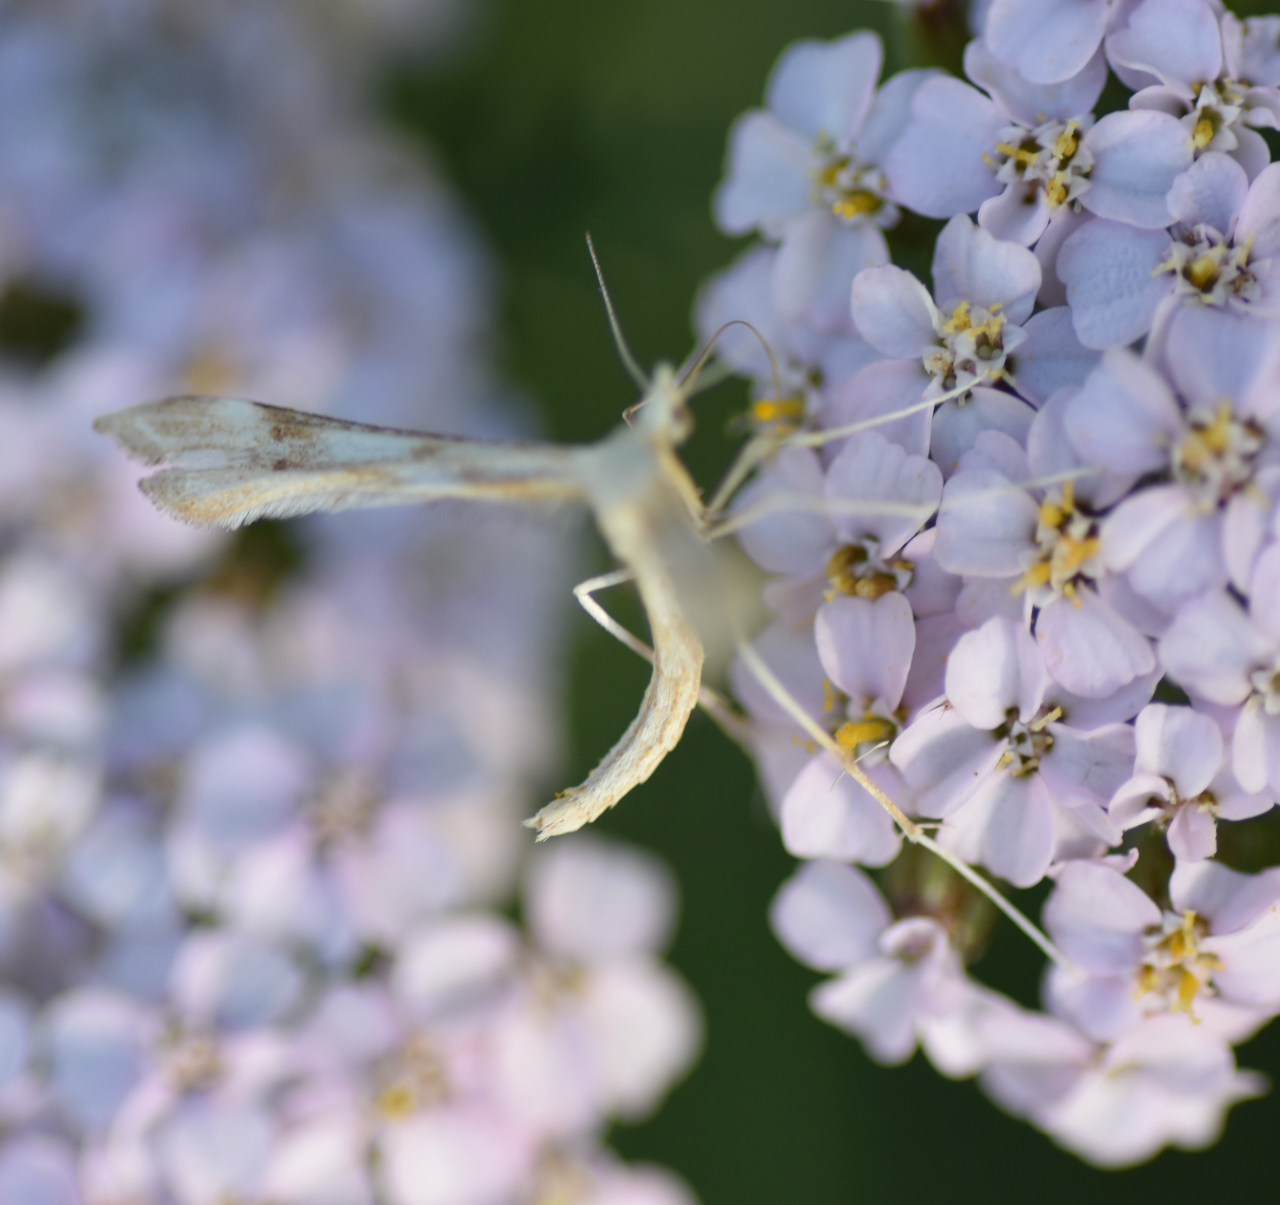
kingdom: Animalia
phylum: Arthropoda
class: Insecta
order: Lepidoptera
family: Pterophoridae
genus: Gillmeria
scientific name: Gillmeria pallidactyla
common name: Yarrow plume
